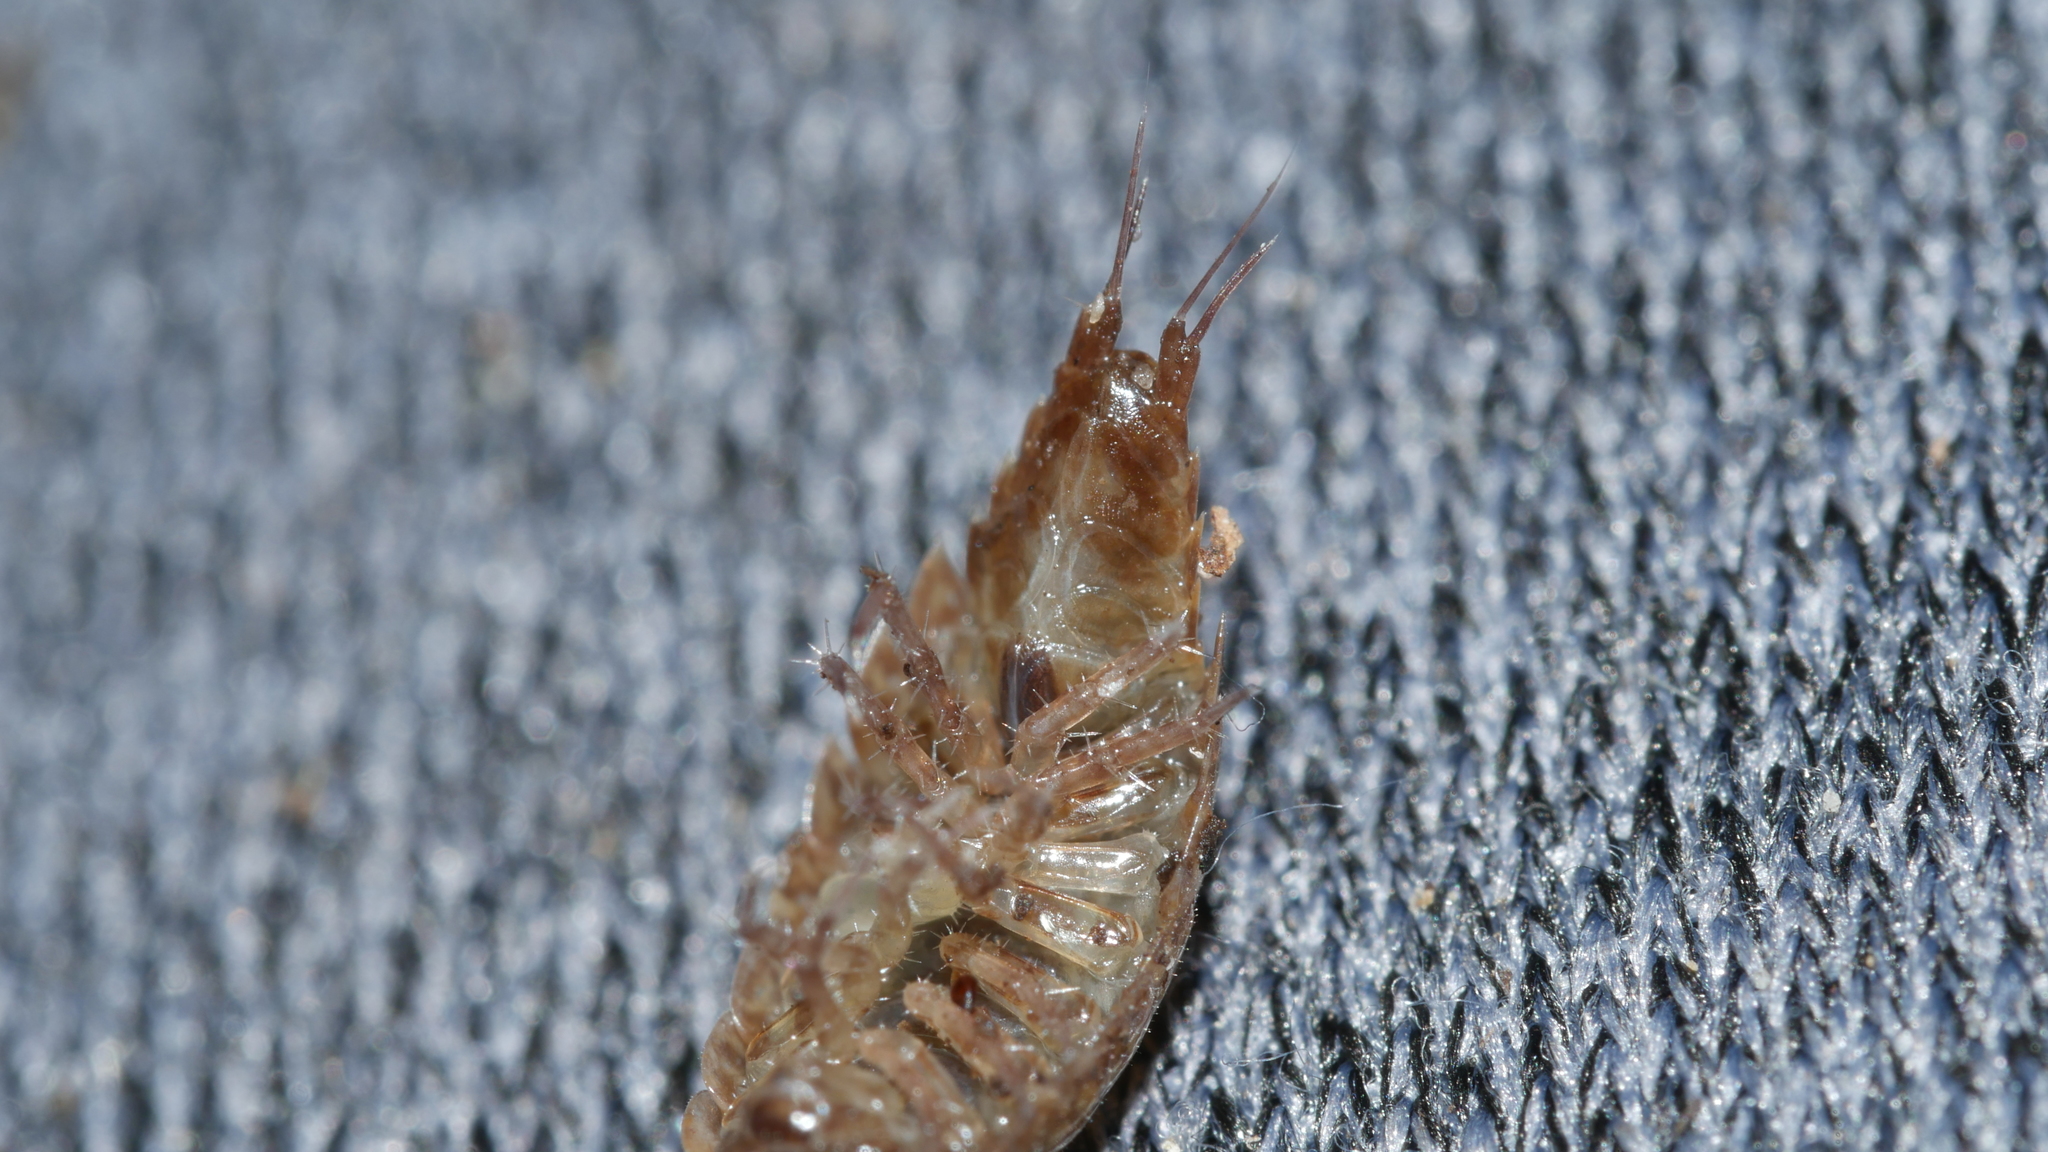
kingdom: Animalia
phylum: Arthropoda
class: Malacostraca
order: Isopoda
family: Ligiidae
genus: Ligidium
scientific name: Ligidium elrodii
